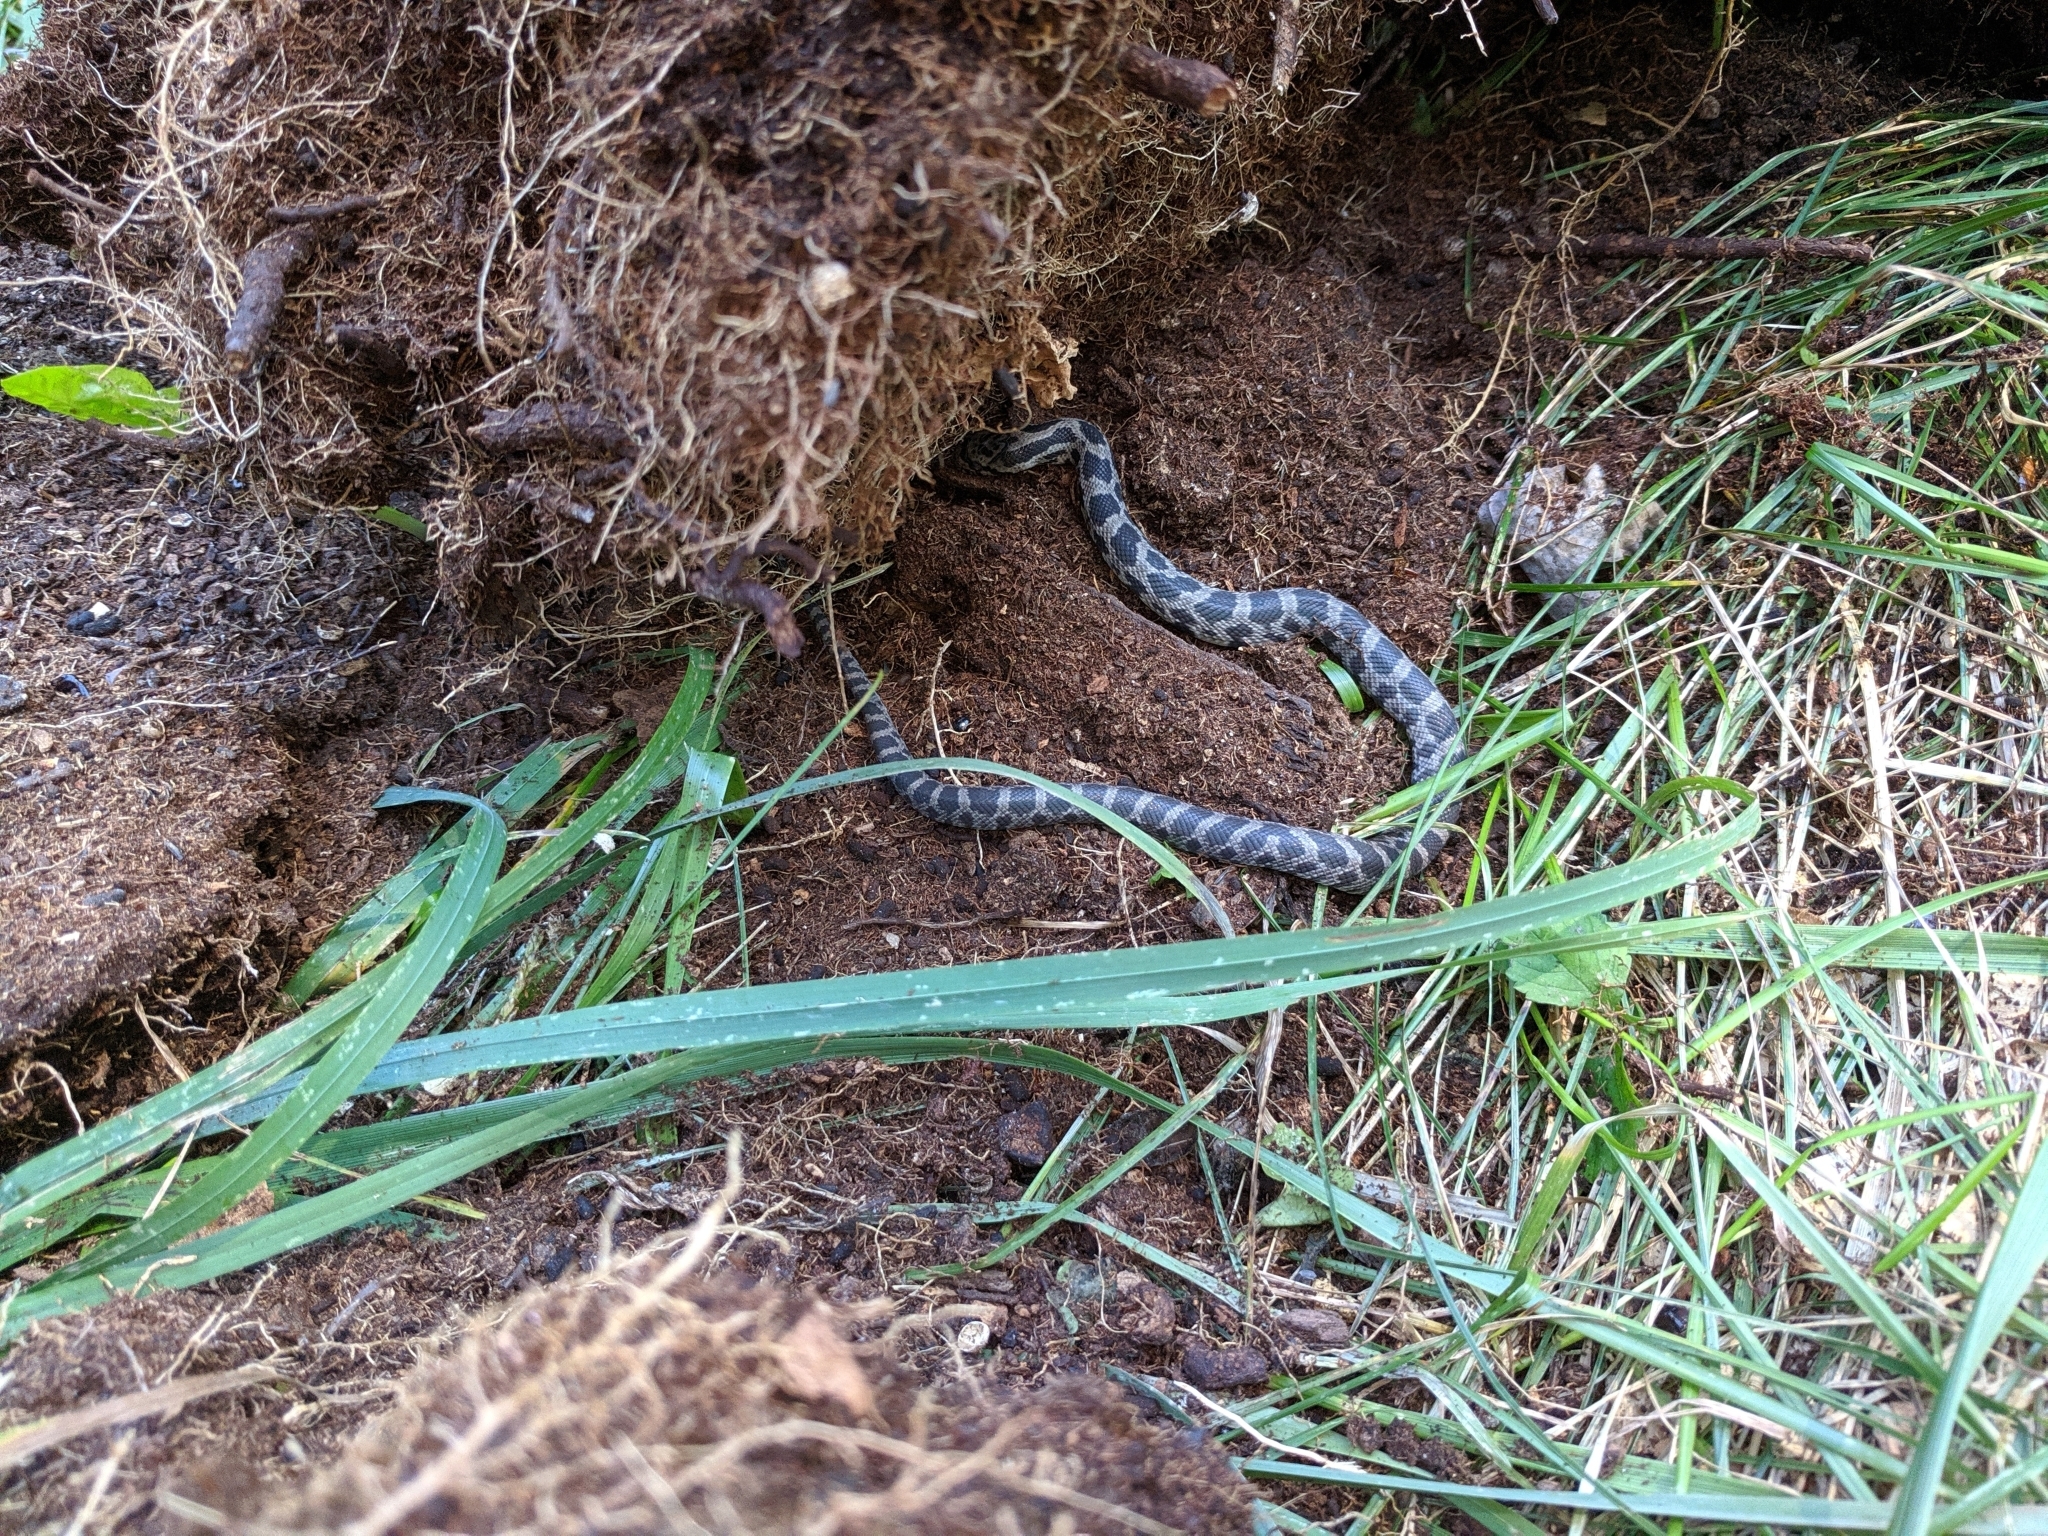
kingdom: Animalia
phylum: Chordata
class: Squamata
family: Colubridae
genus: Pantherophis
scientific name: Pantherophis vulpinus
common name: Eastern fox snake
